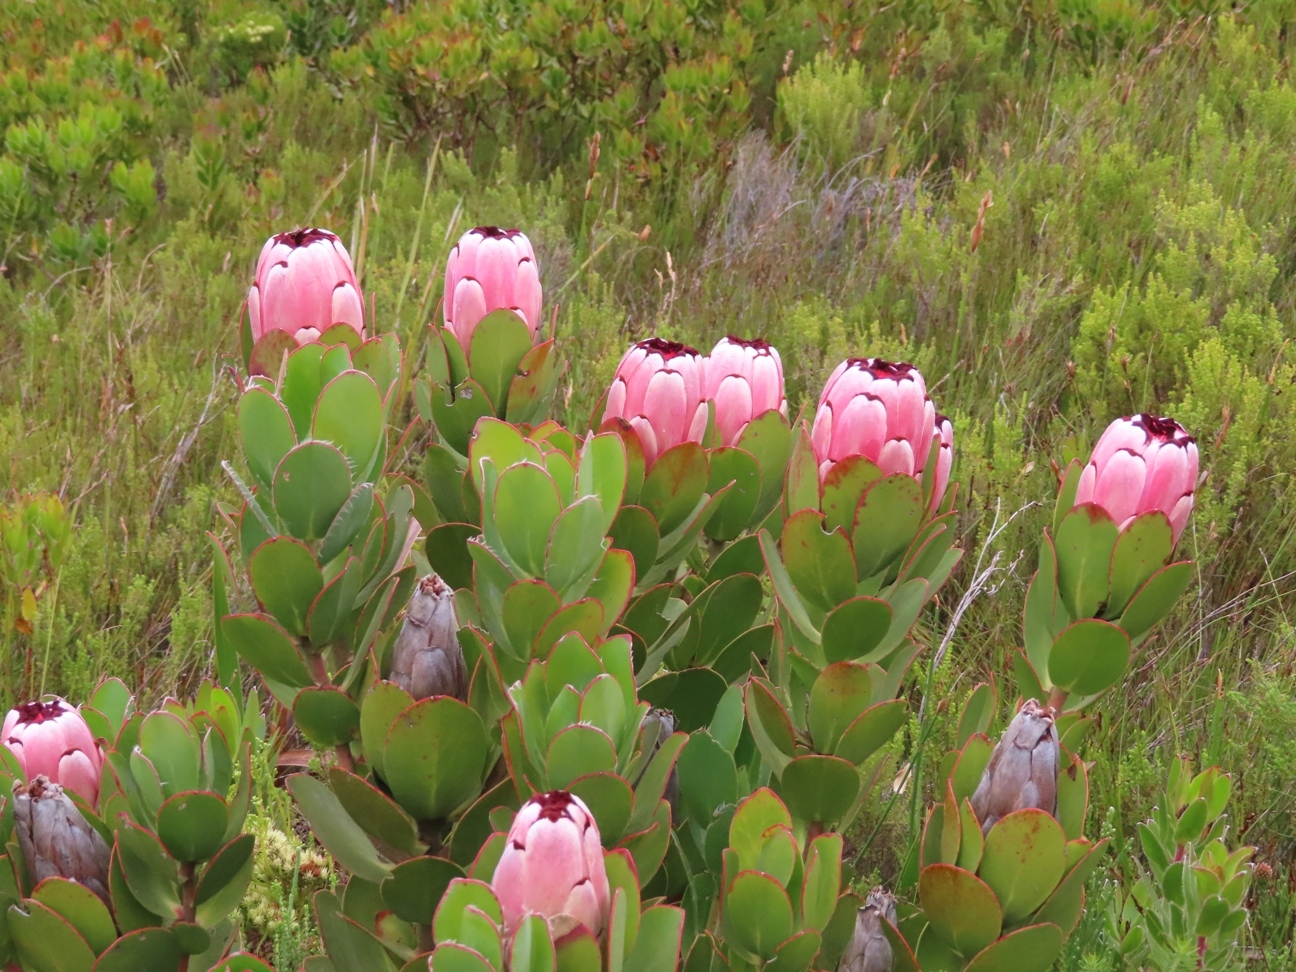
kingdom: Plantae
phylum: Tracheophyta
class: Magnoliopsida
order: Proteales
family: Proteaceae
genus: Protea
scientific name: Protea stokoei
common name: Pink sugarbush
